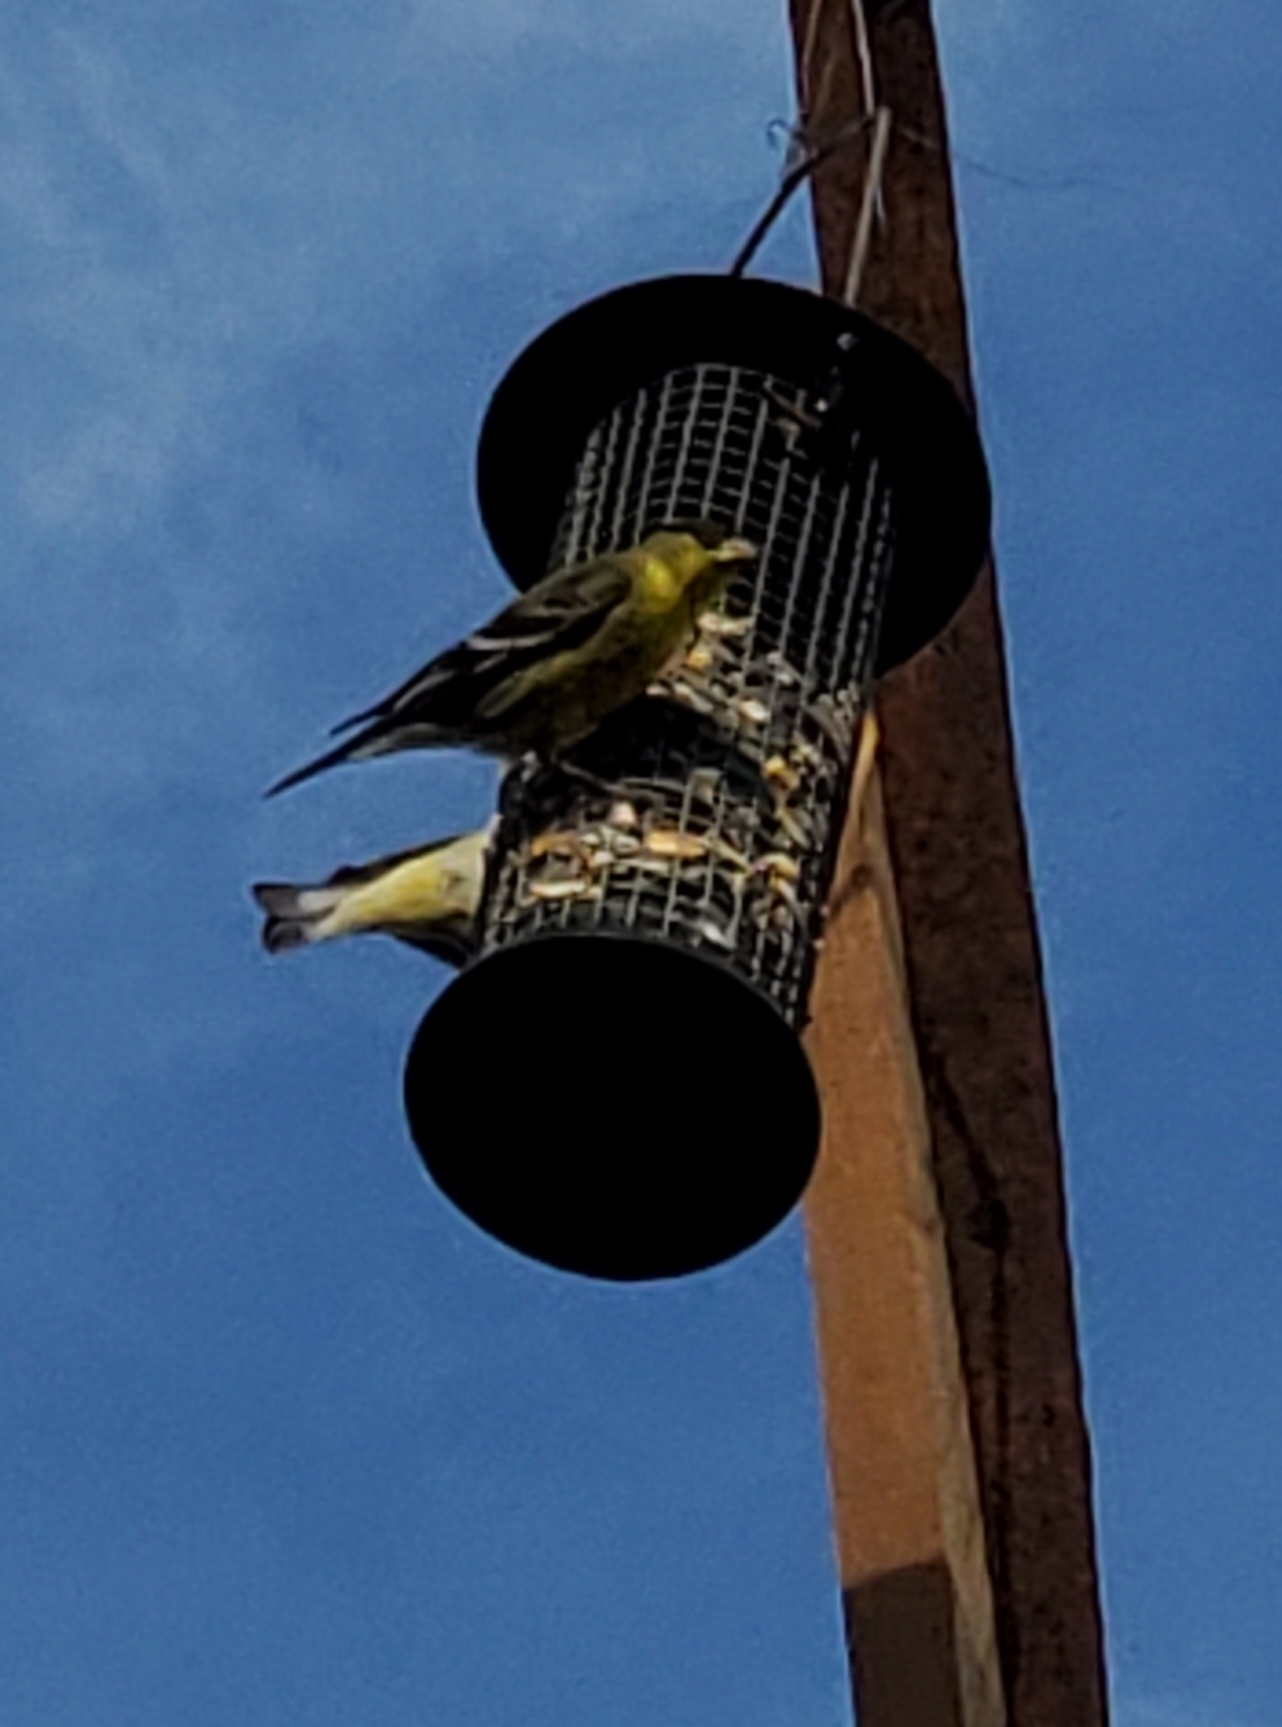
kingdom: Animalia
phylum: Chordata
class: Aves
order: Passeriformes
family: Fringillidae
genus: Spinus
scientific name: Spinus psaltria
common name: Lesser goldfinch
